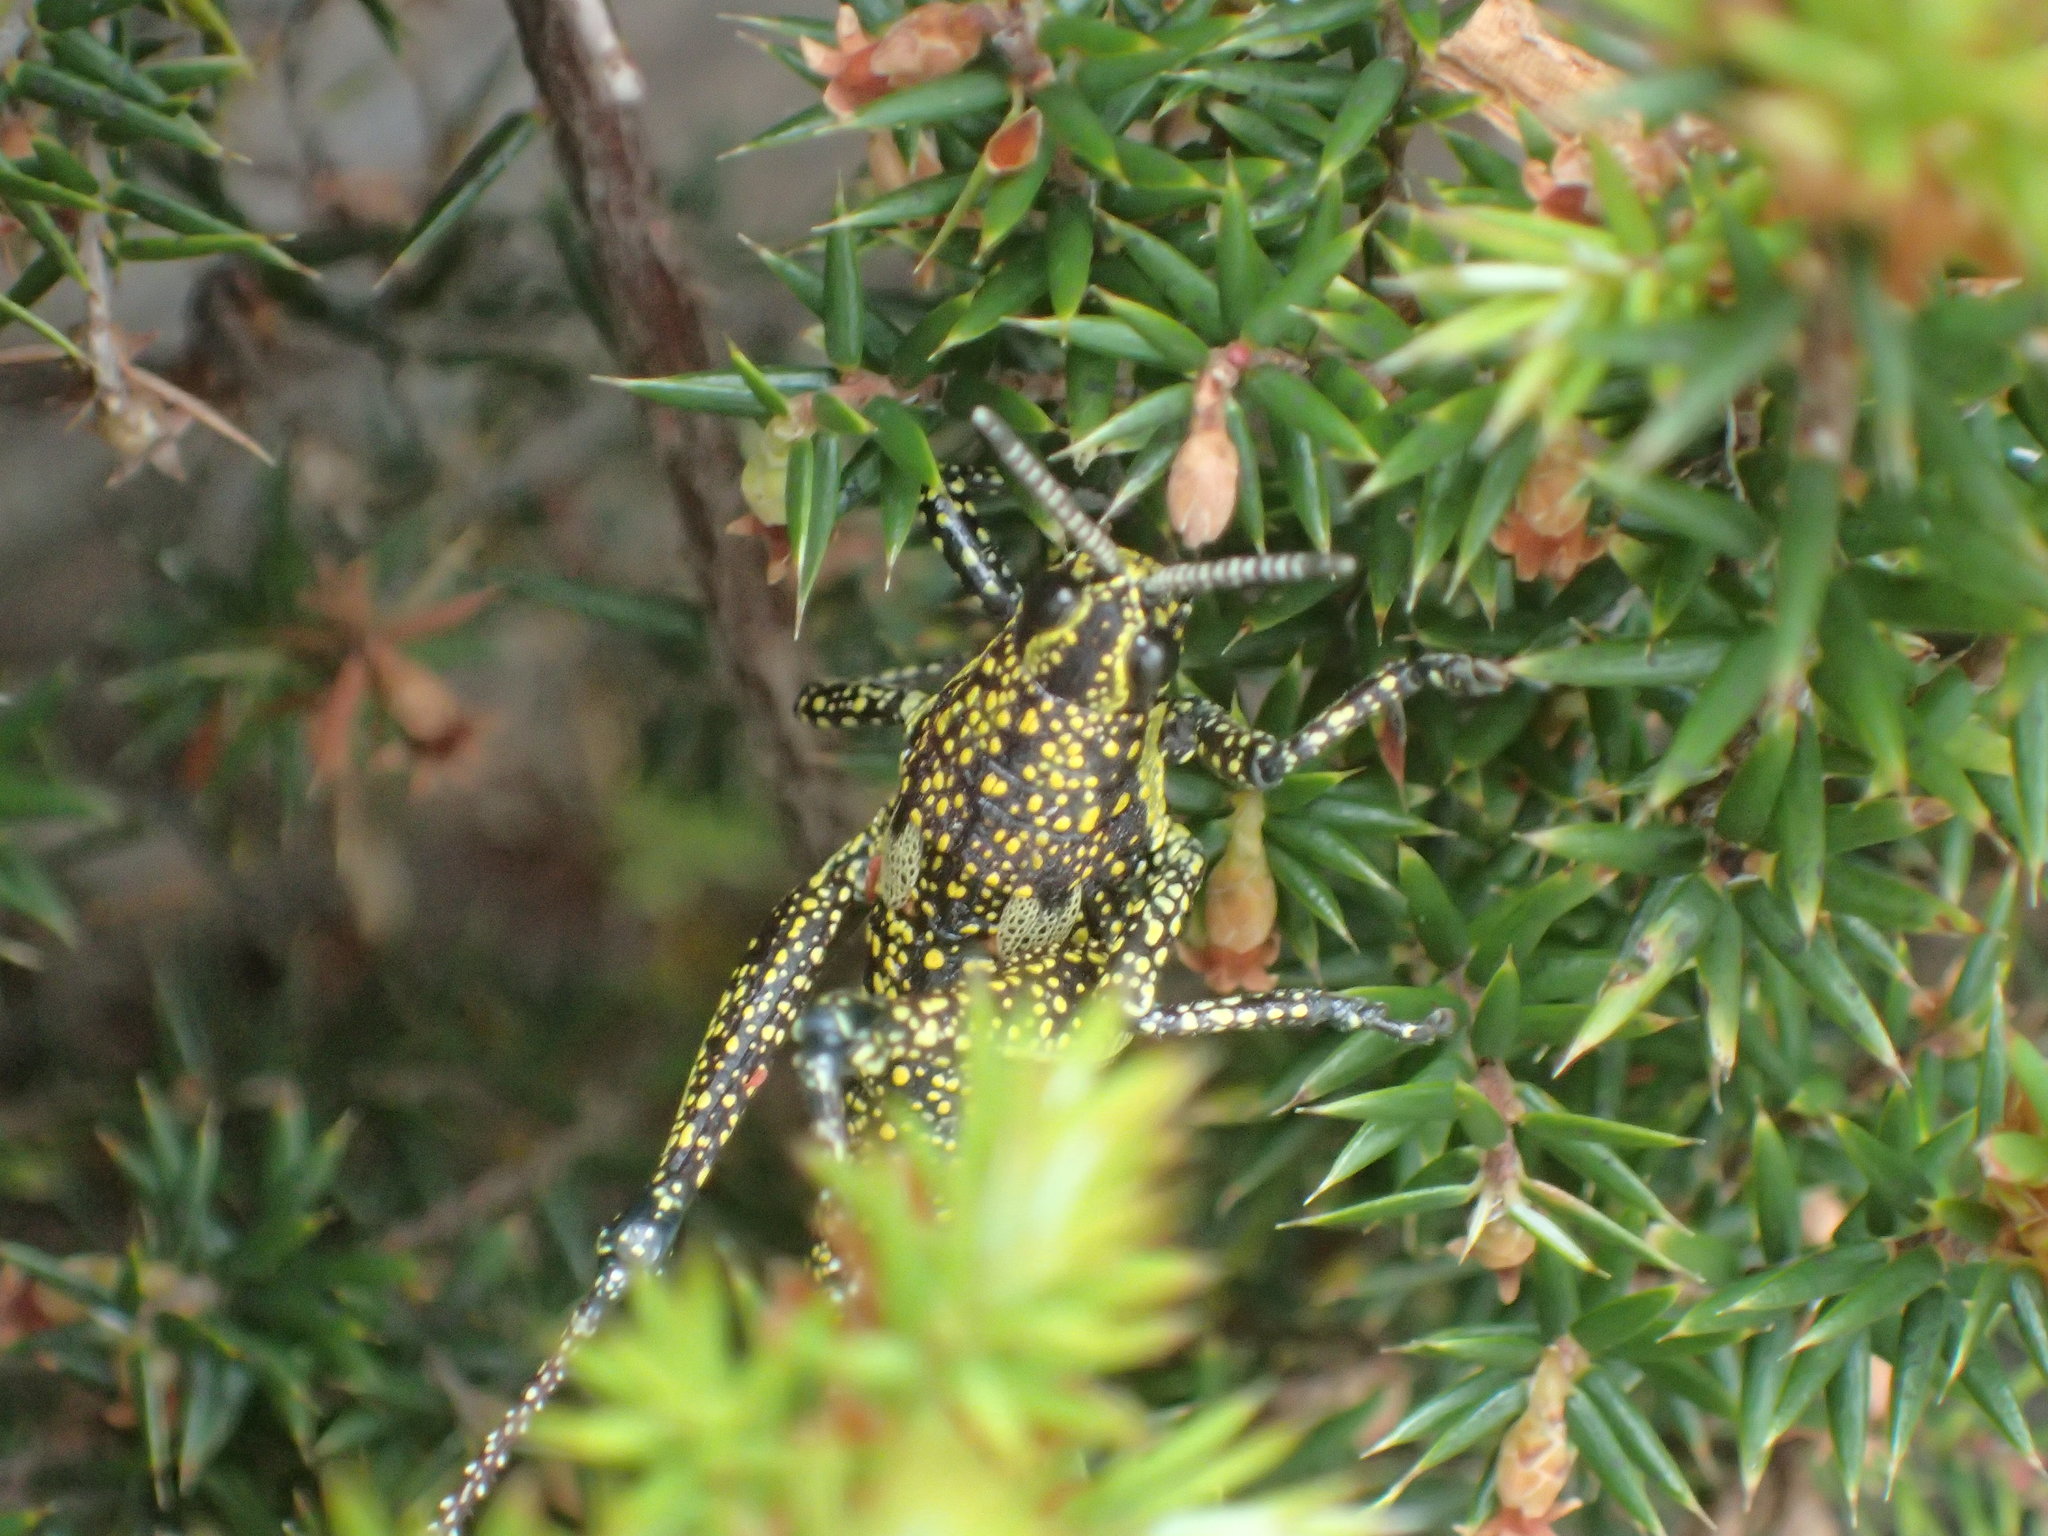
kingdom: Animalia
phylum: Arthropoda
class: Insecta
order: Orthoptera
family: Pyrgomorphidae
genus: Monistria
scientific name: Monistria concinna
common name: Southern pyrgomorph
